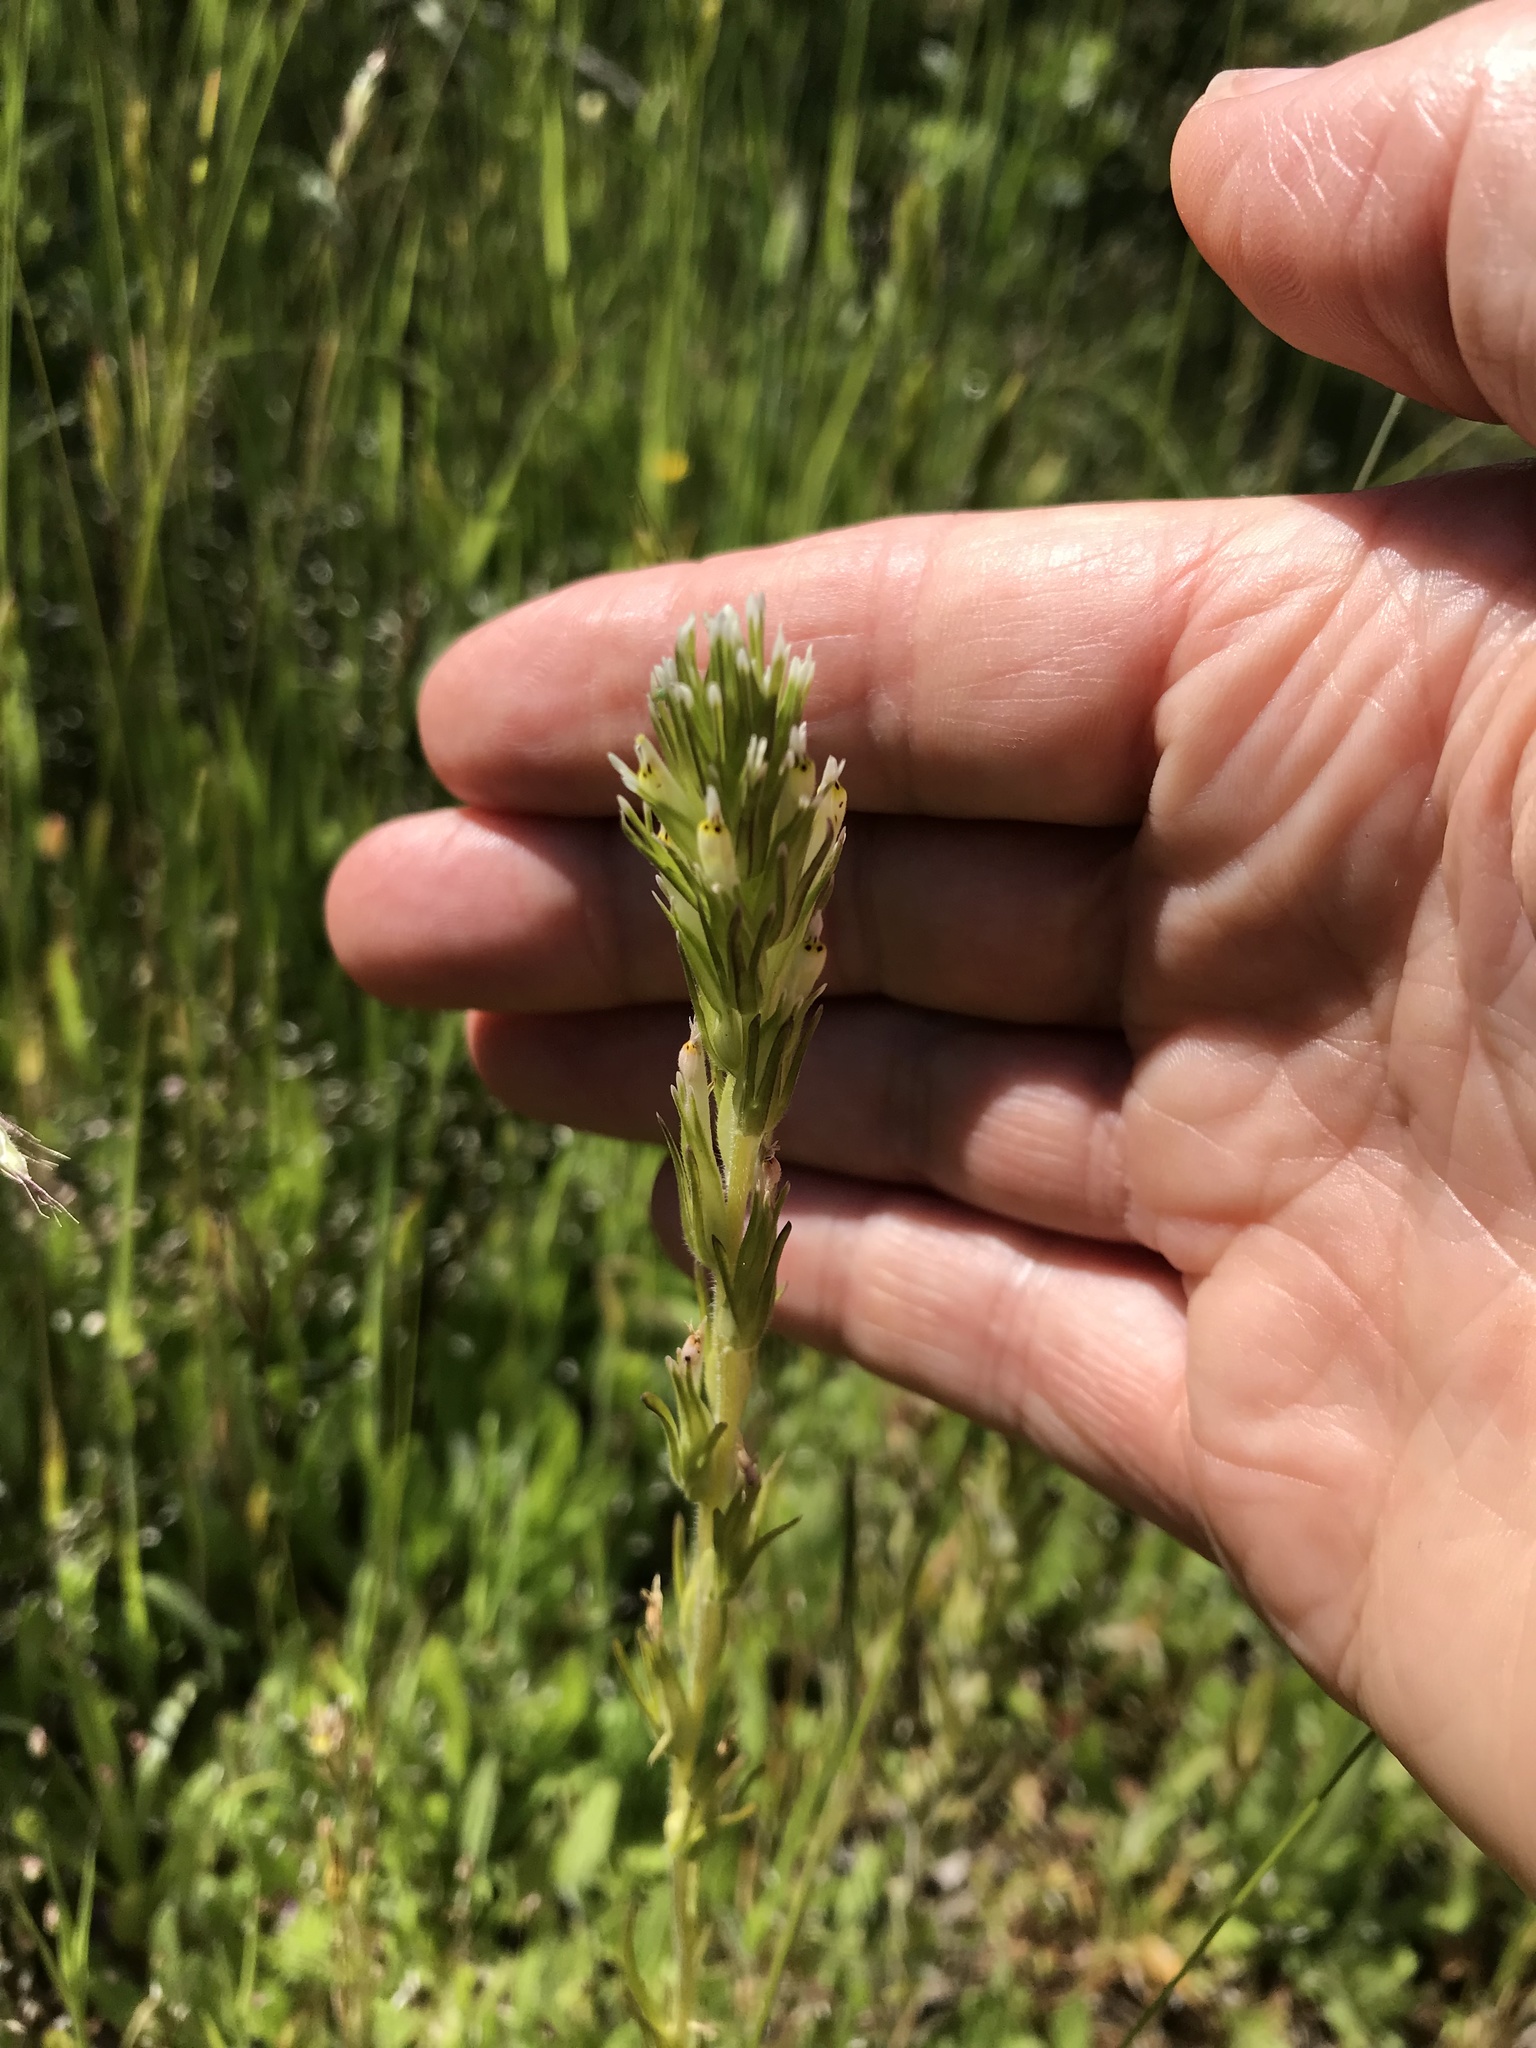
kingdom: Plantae
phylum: Tracheophyta
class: Magnoliopsida
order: Lamiales
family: Orobanchaceae
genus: Castilleja
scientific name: Castilleja attenuata
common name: Valley tassels
